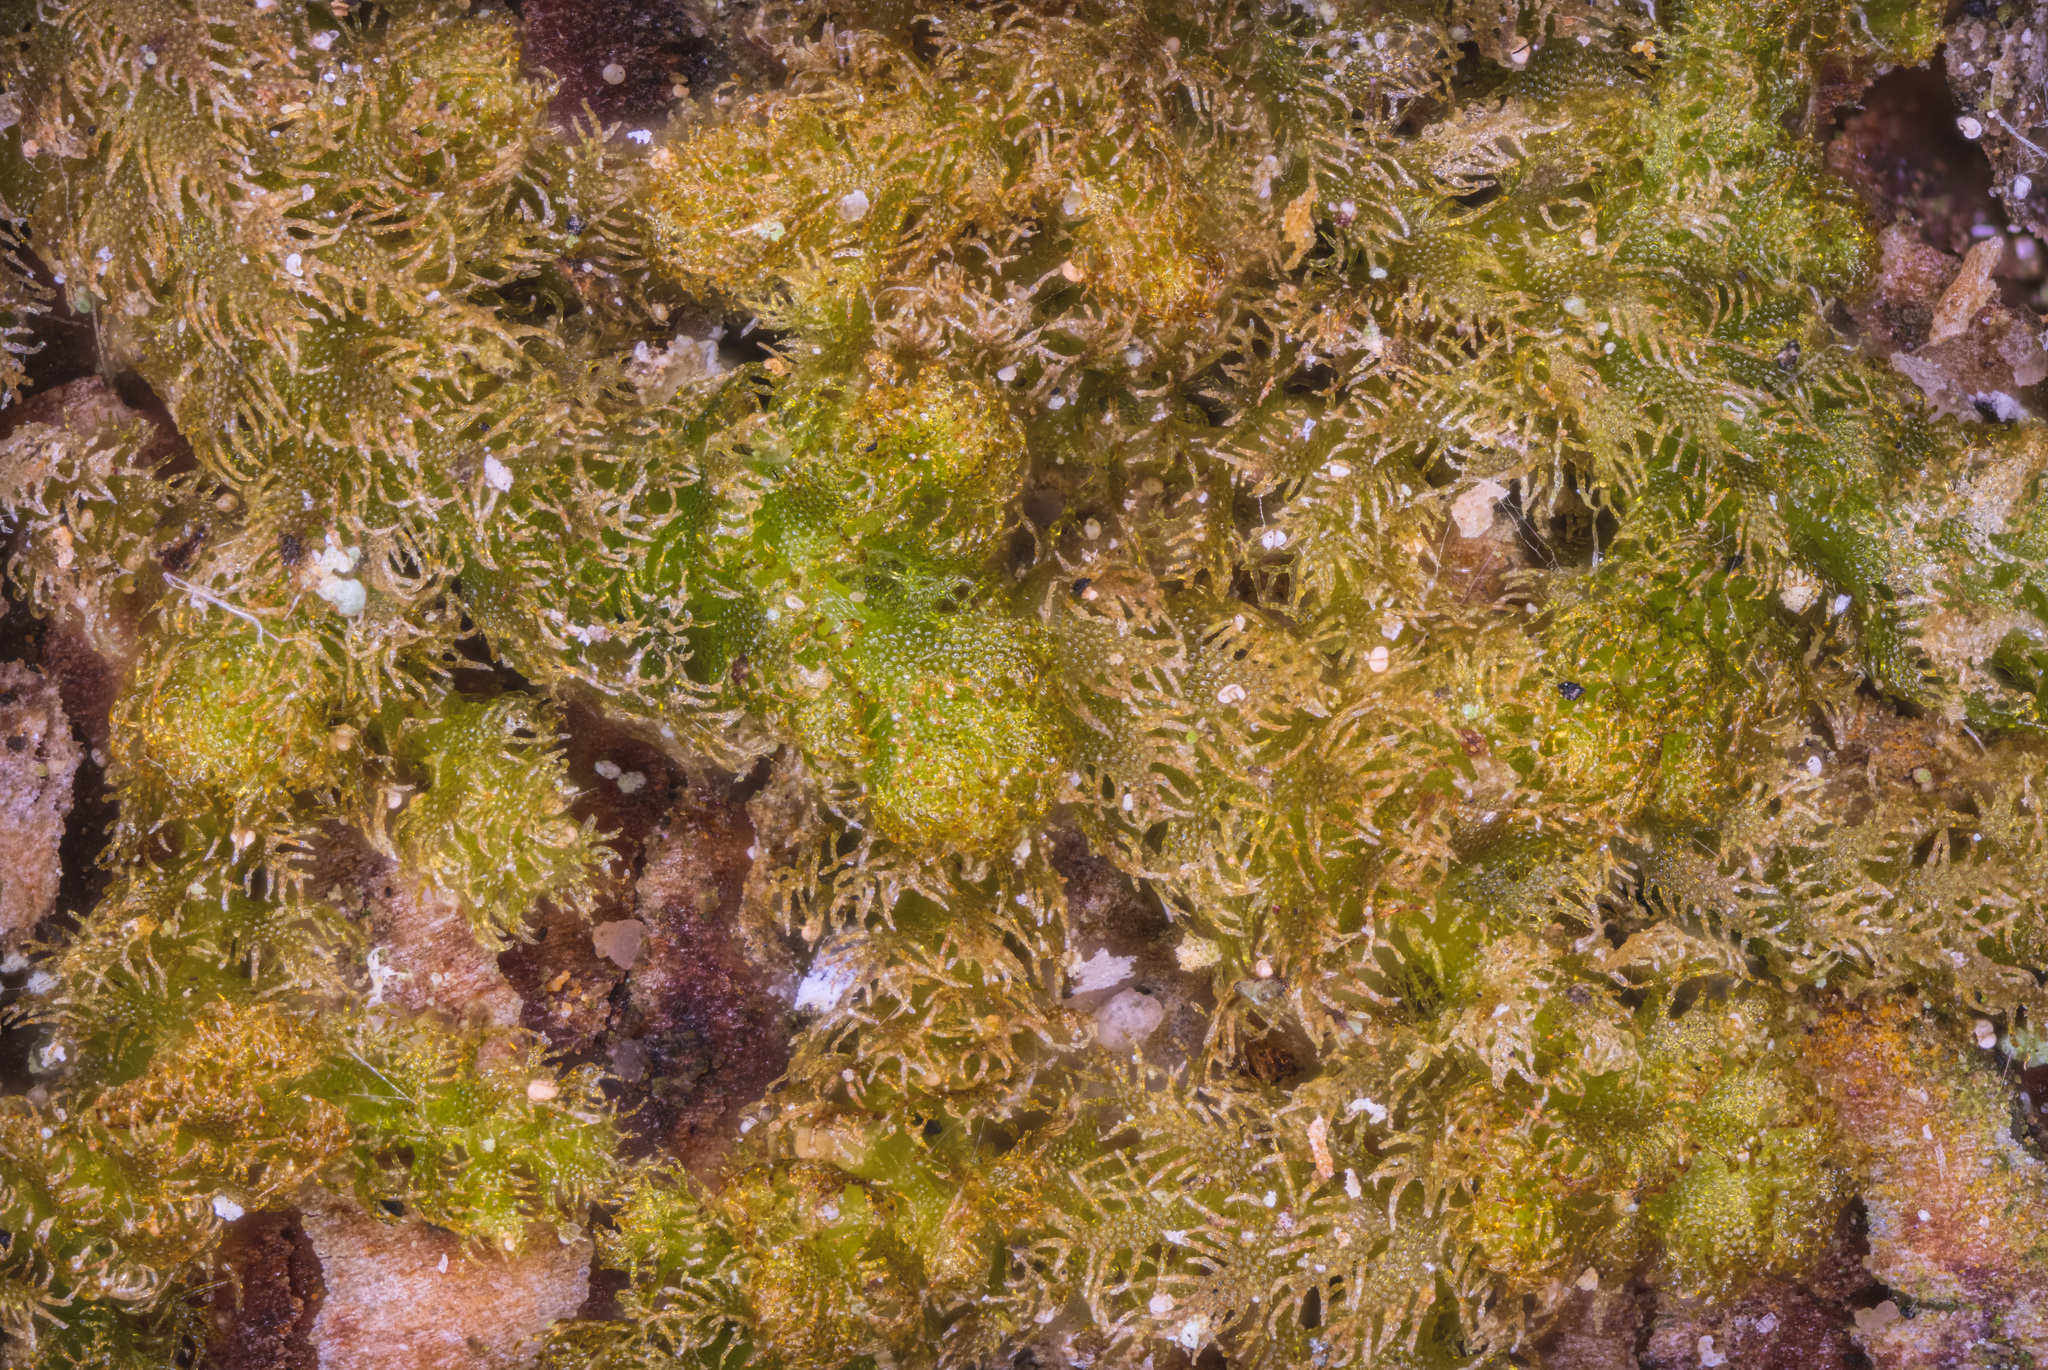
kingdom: Plantae
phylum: Marchantiophyta
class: Jungermanniopsida
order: Ptilidiales
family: Ptilidiaceae
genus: Ptilidium
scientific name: Ptilidium pulcherrimum
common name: Tree fringewort
